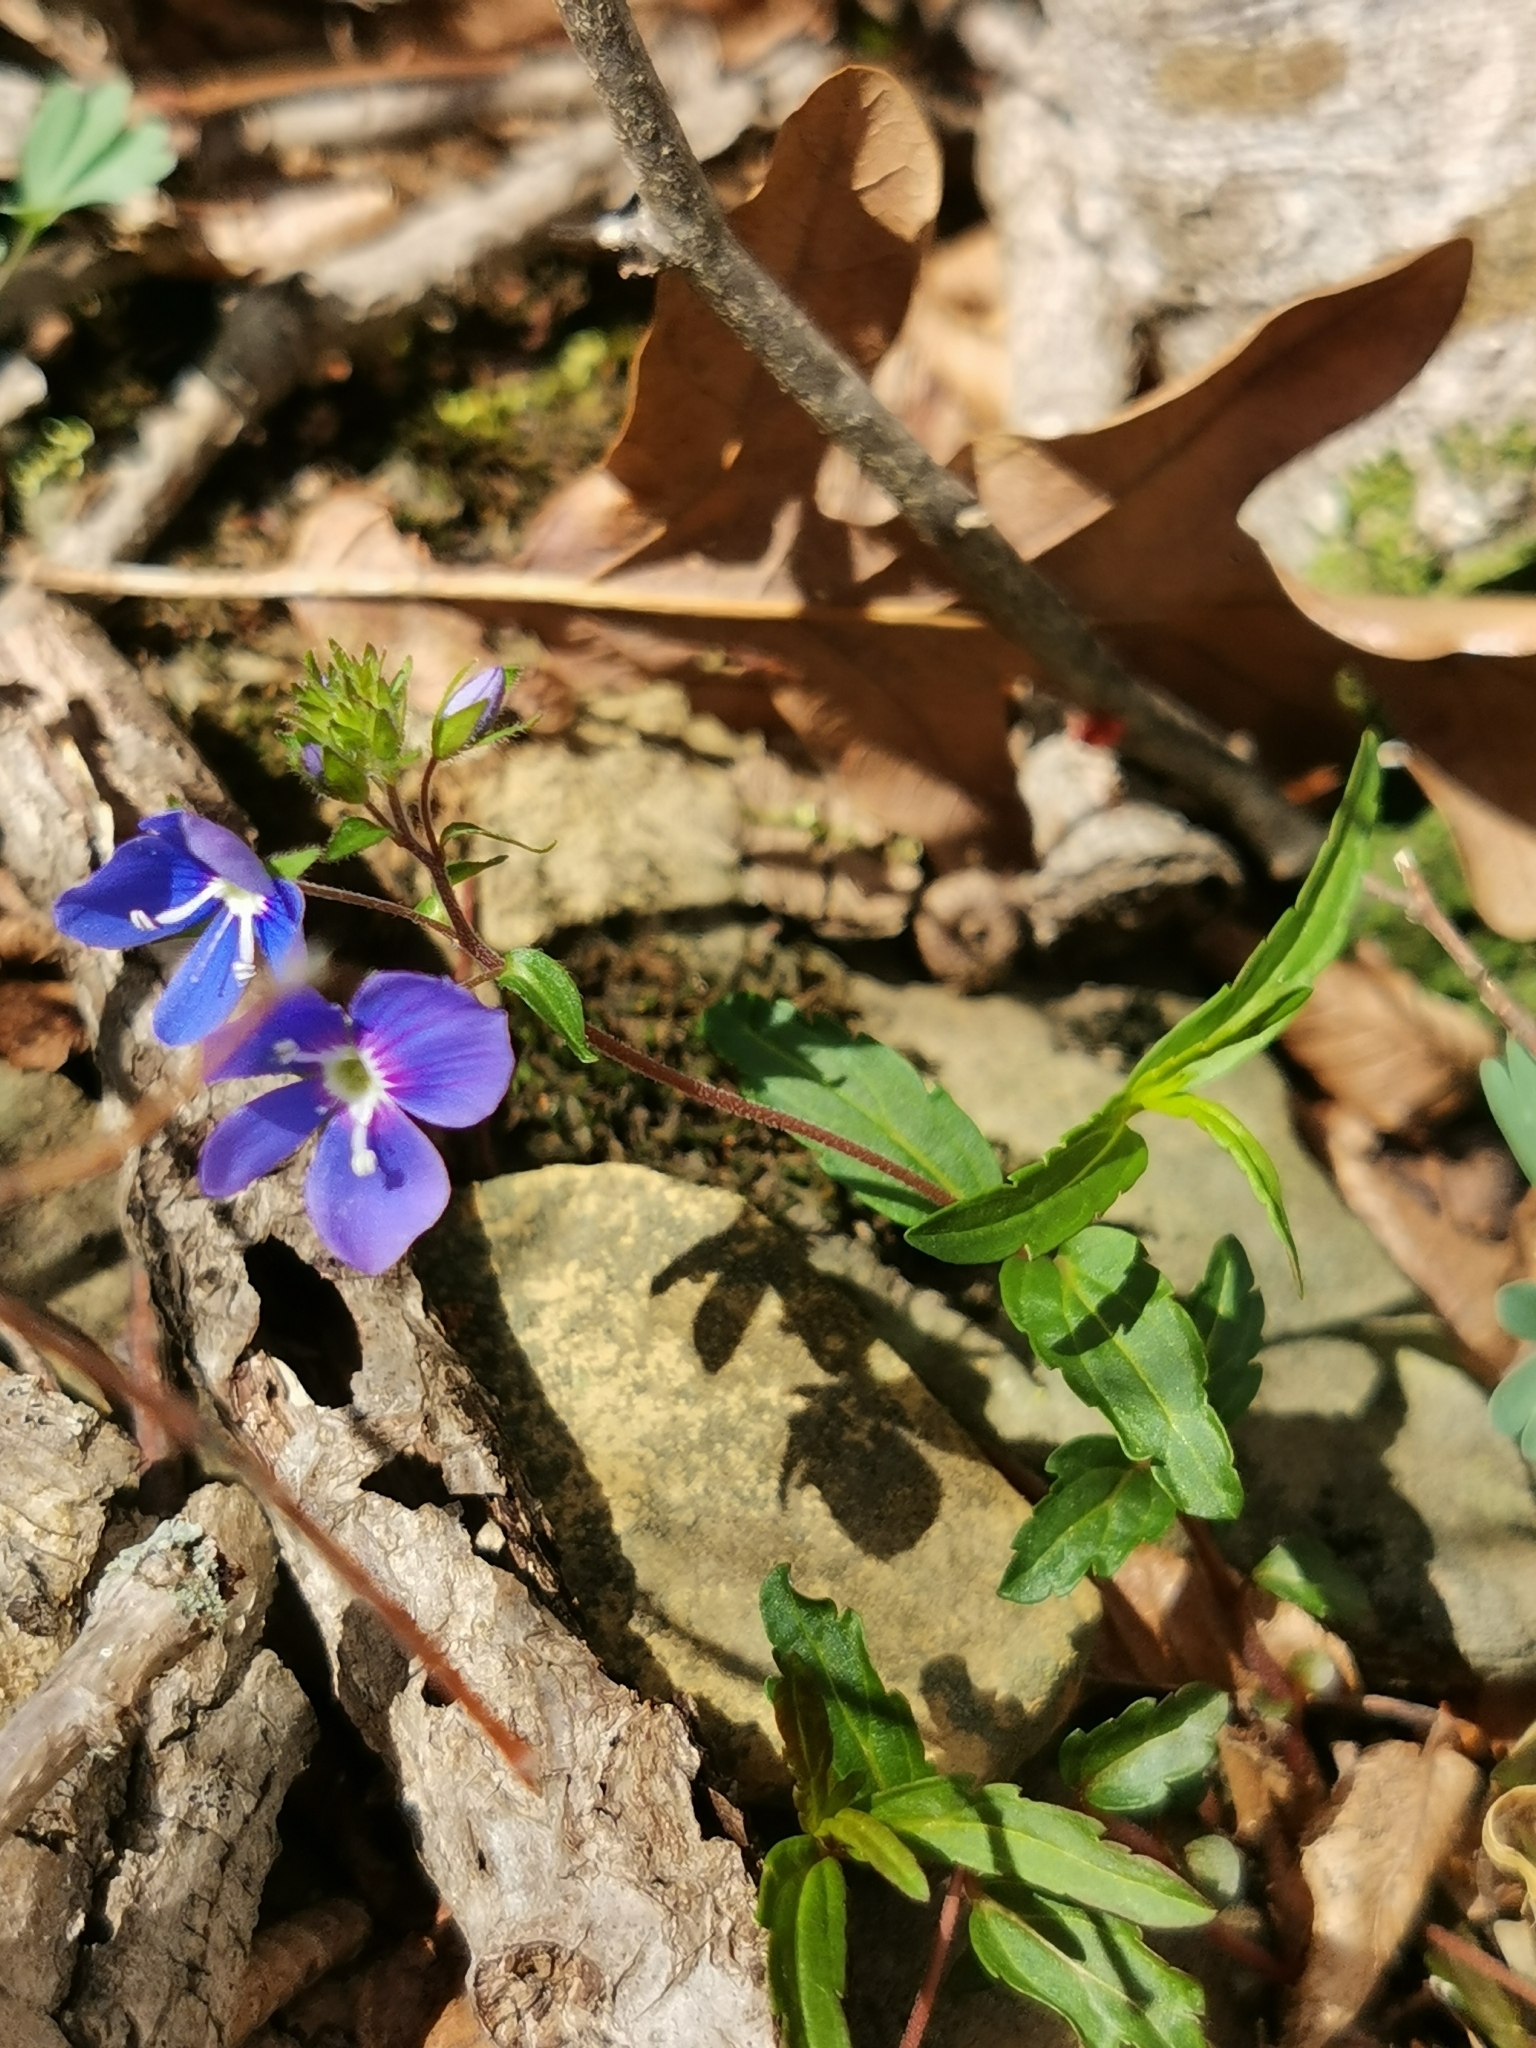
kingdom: Plantae
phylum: Tracheophyta
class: Magnoliopsida
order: Lamiales
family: Plantaginaceae
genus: Veronica
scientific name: Veronica
